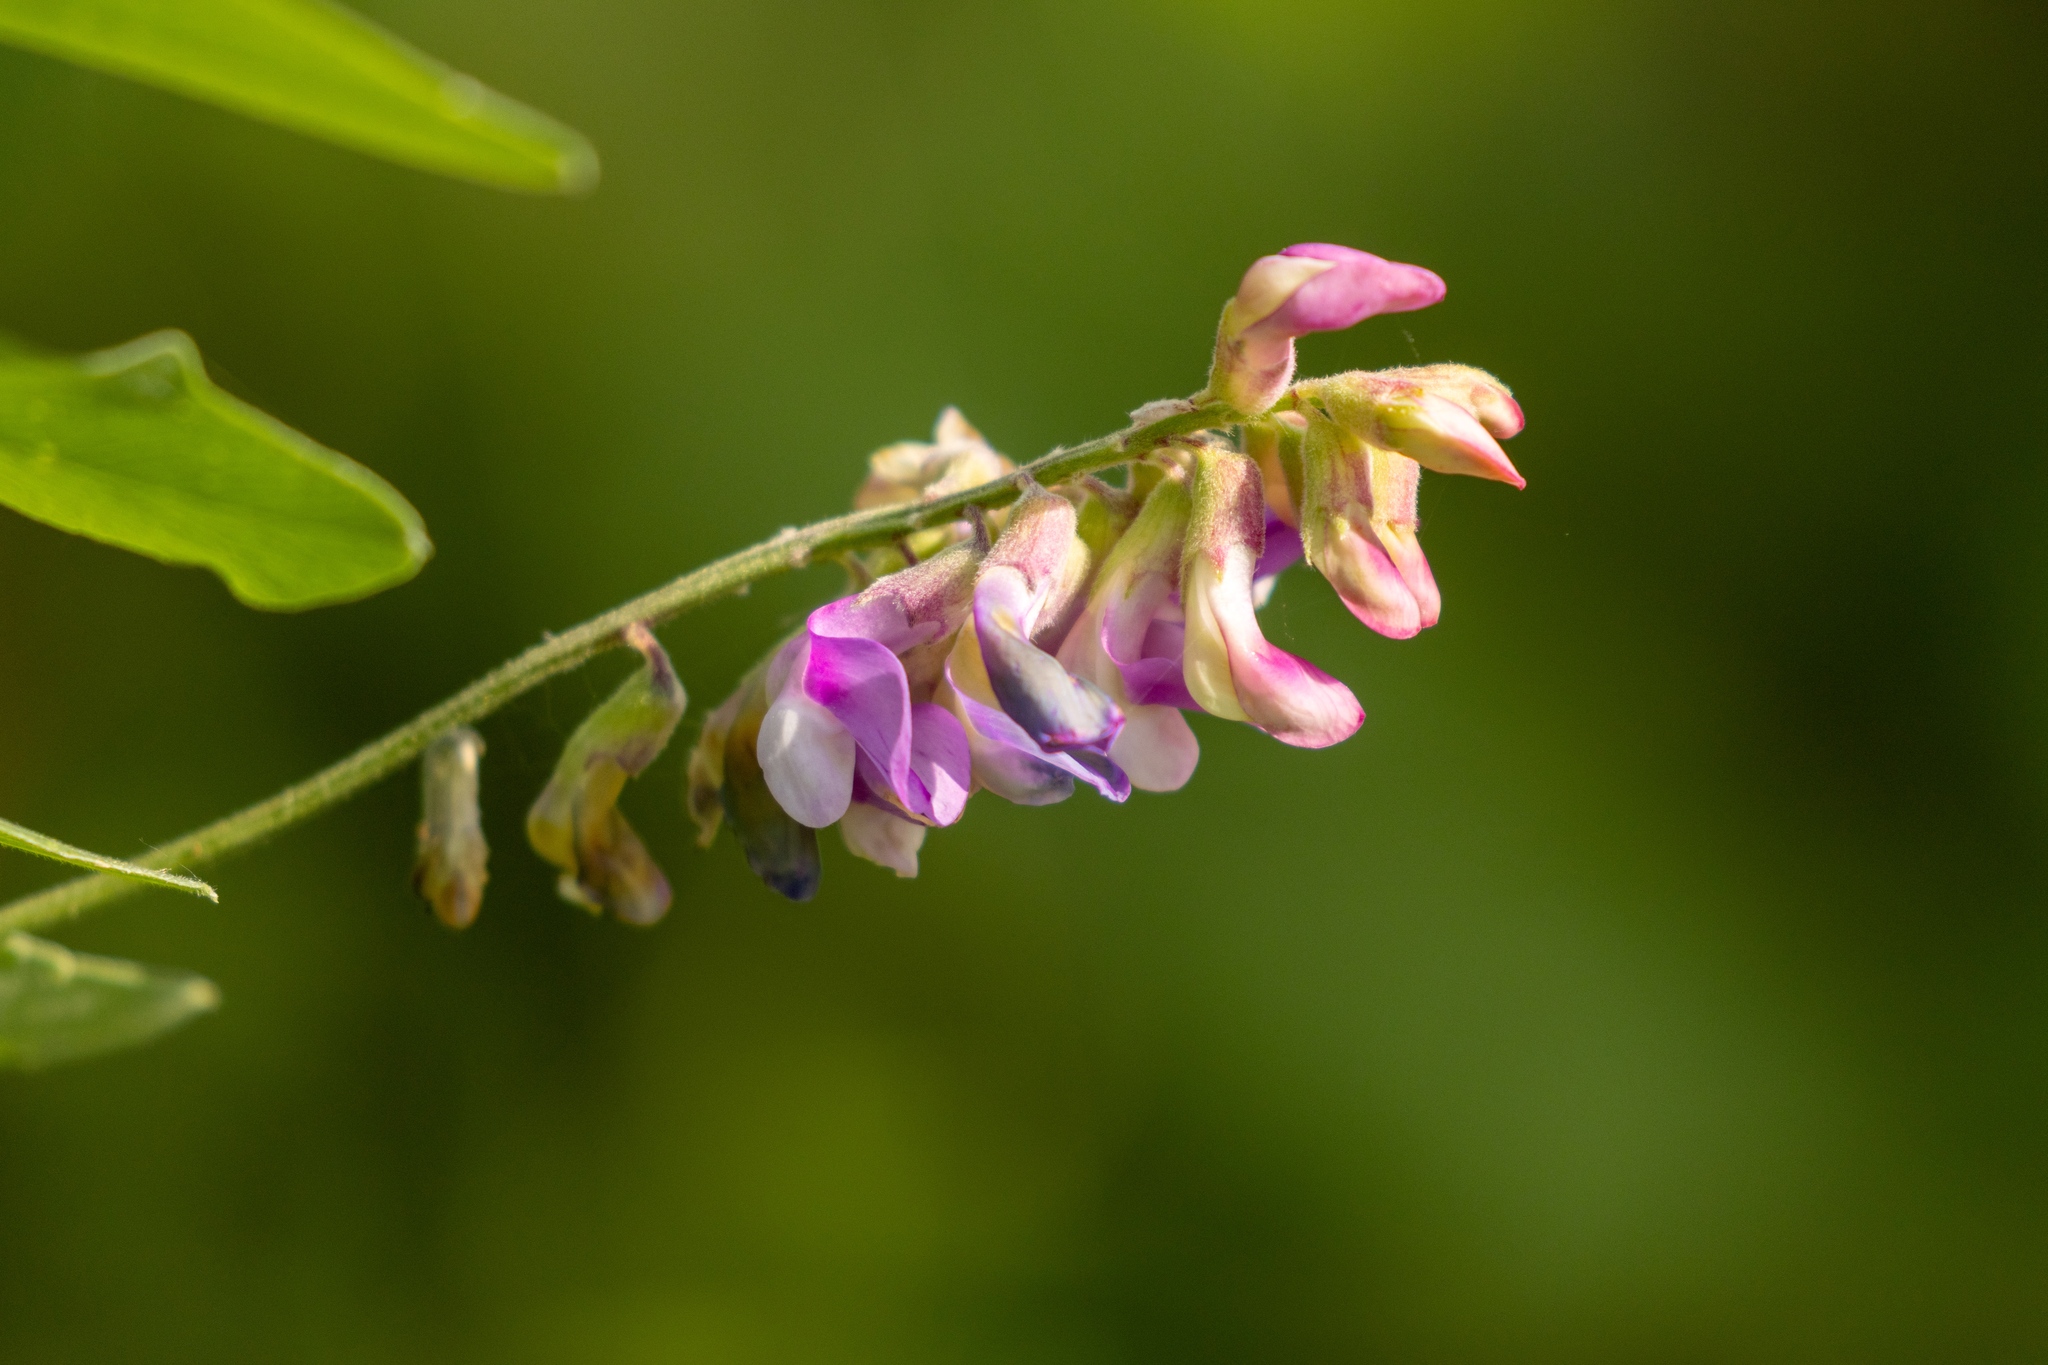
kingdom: Plantae
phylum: Tracheophyta
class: Magnoliopsida
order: Fabales
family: Fabaceae
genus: Lathyrus
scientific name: Lathyrus venosus
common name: Forest-pea
